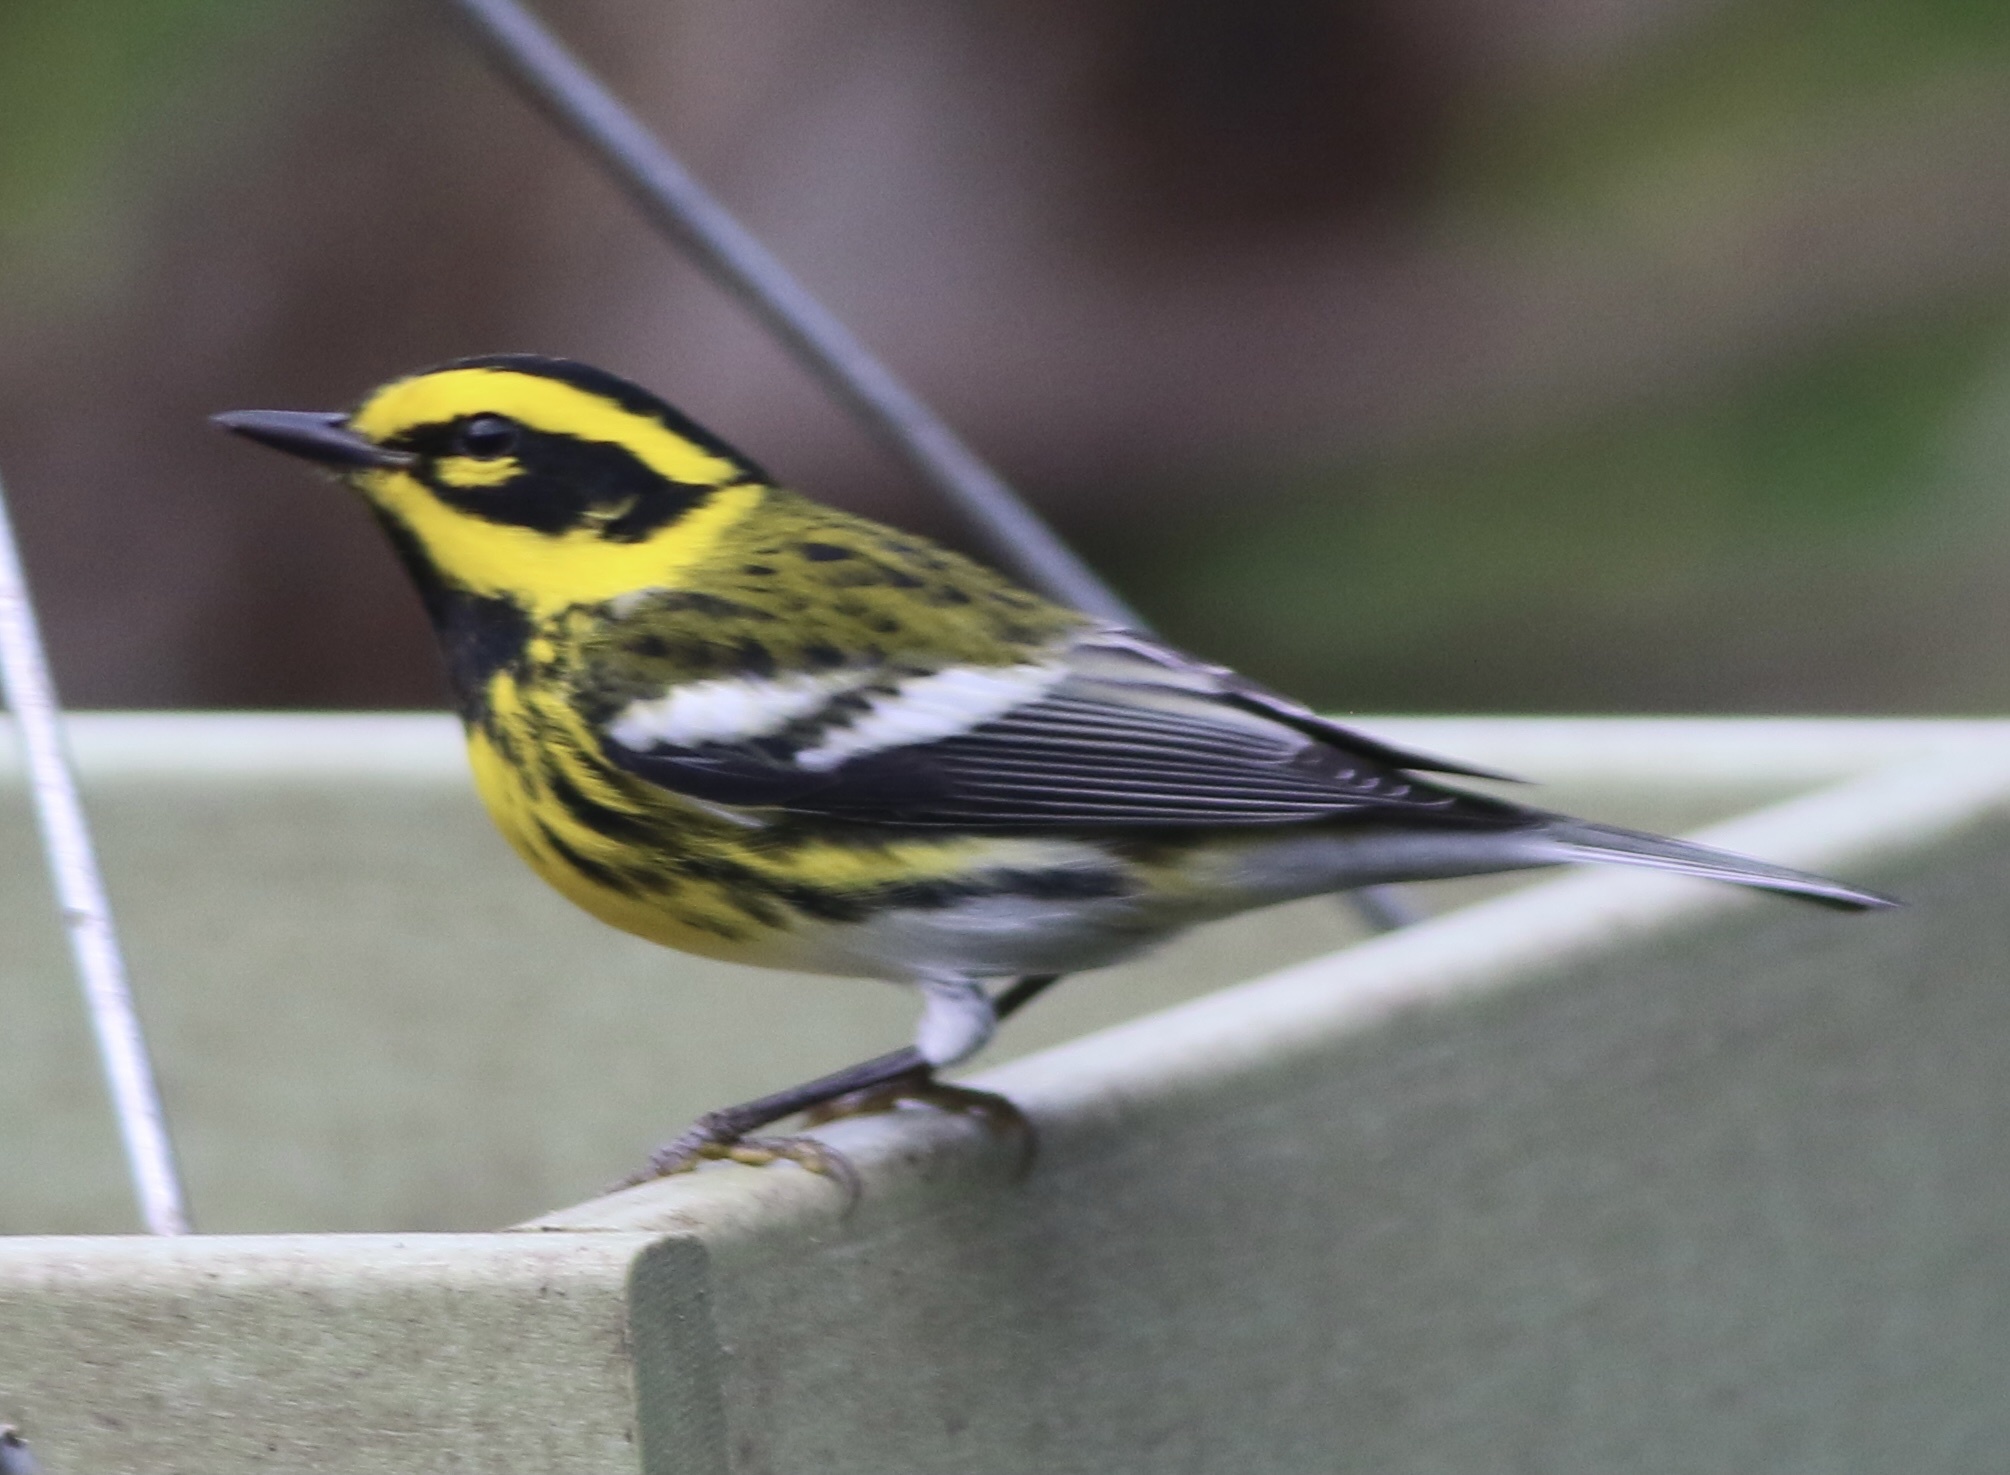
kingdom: Animalia
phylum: Chordata
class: Aves
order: Passeriformes
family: Parulidae
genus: Setophaga
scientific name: Setophaga townsendi
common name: Townsend's warbler
